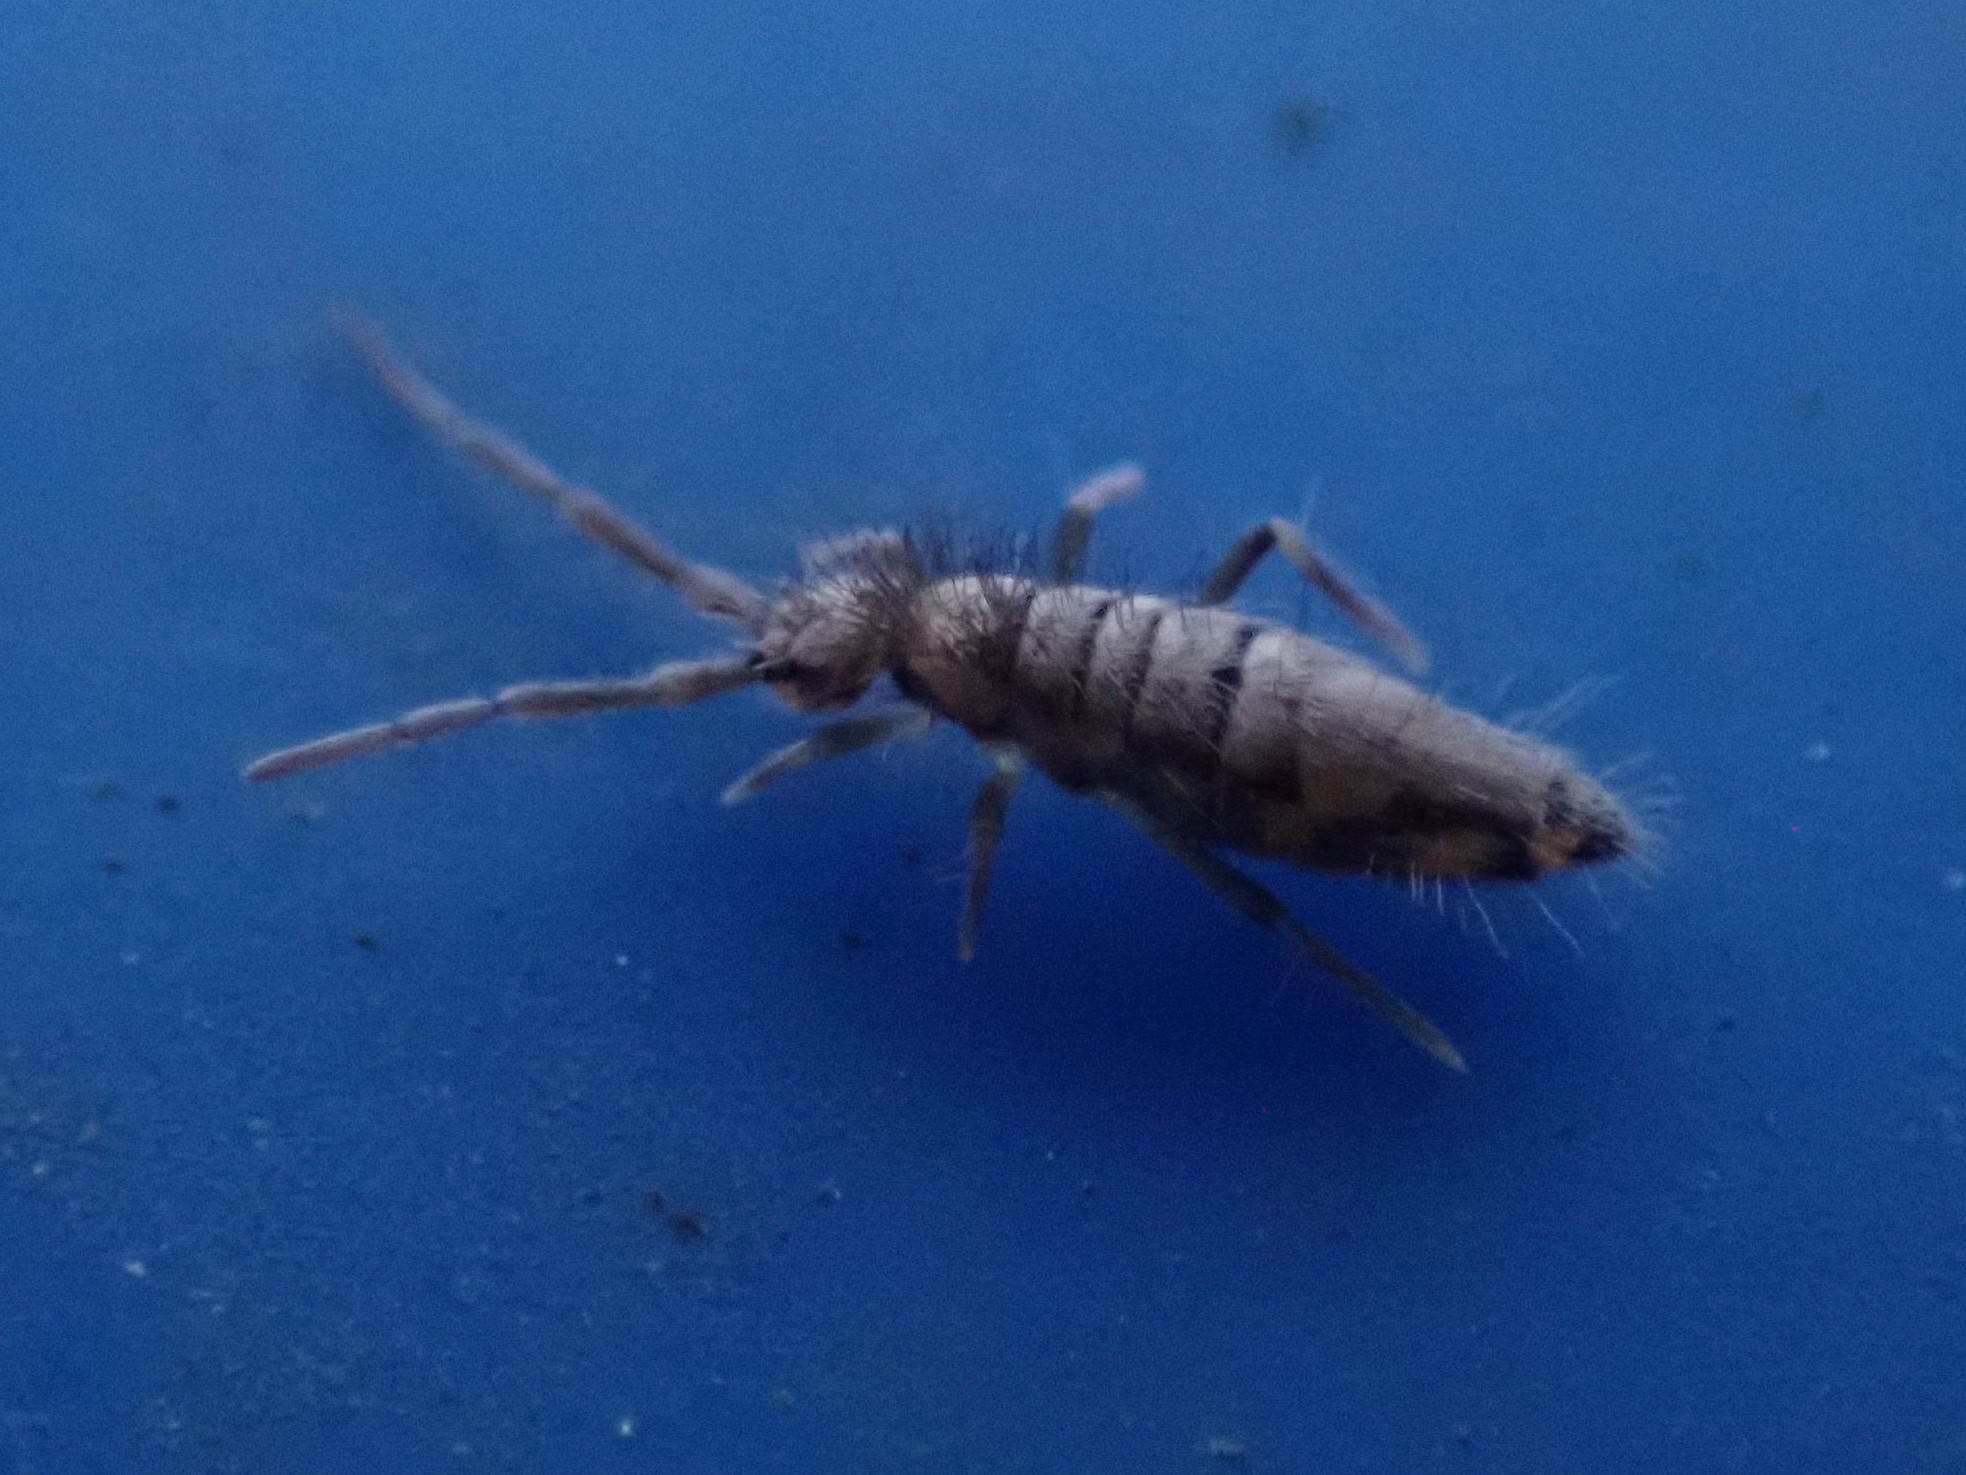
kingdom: Animalia
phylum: Arthropoda
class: Collembola
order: Entomobryomorpha
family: Entomobryidae
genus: Entomobrya
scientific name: Entomobrya katzi
